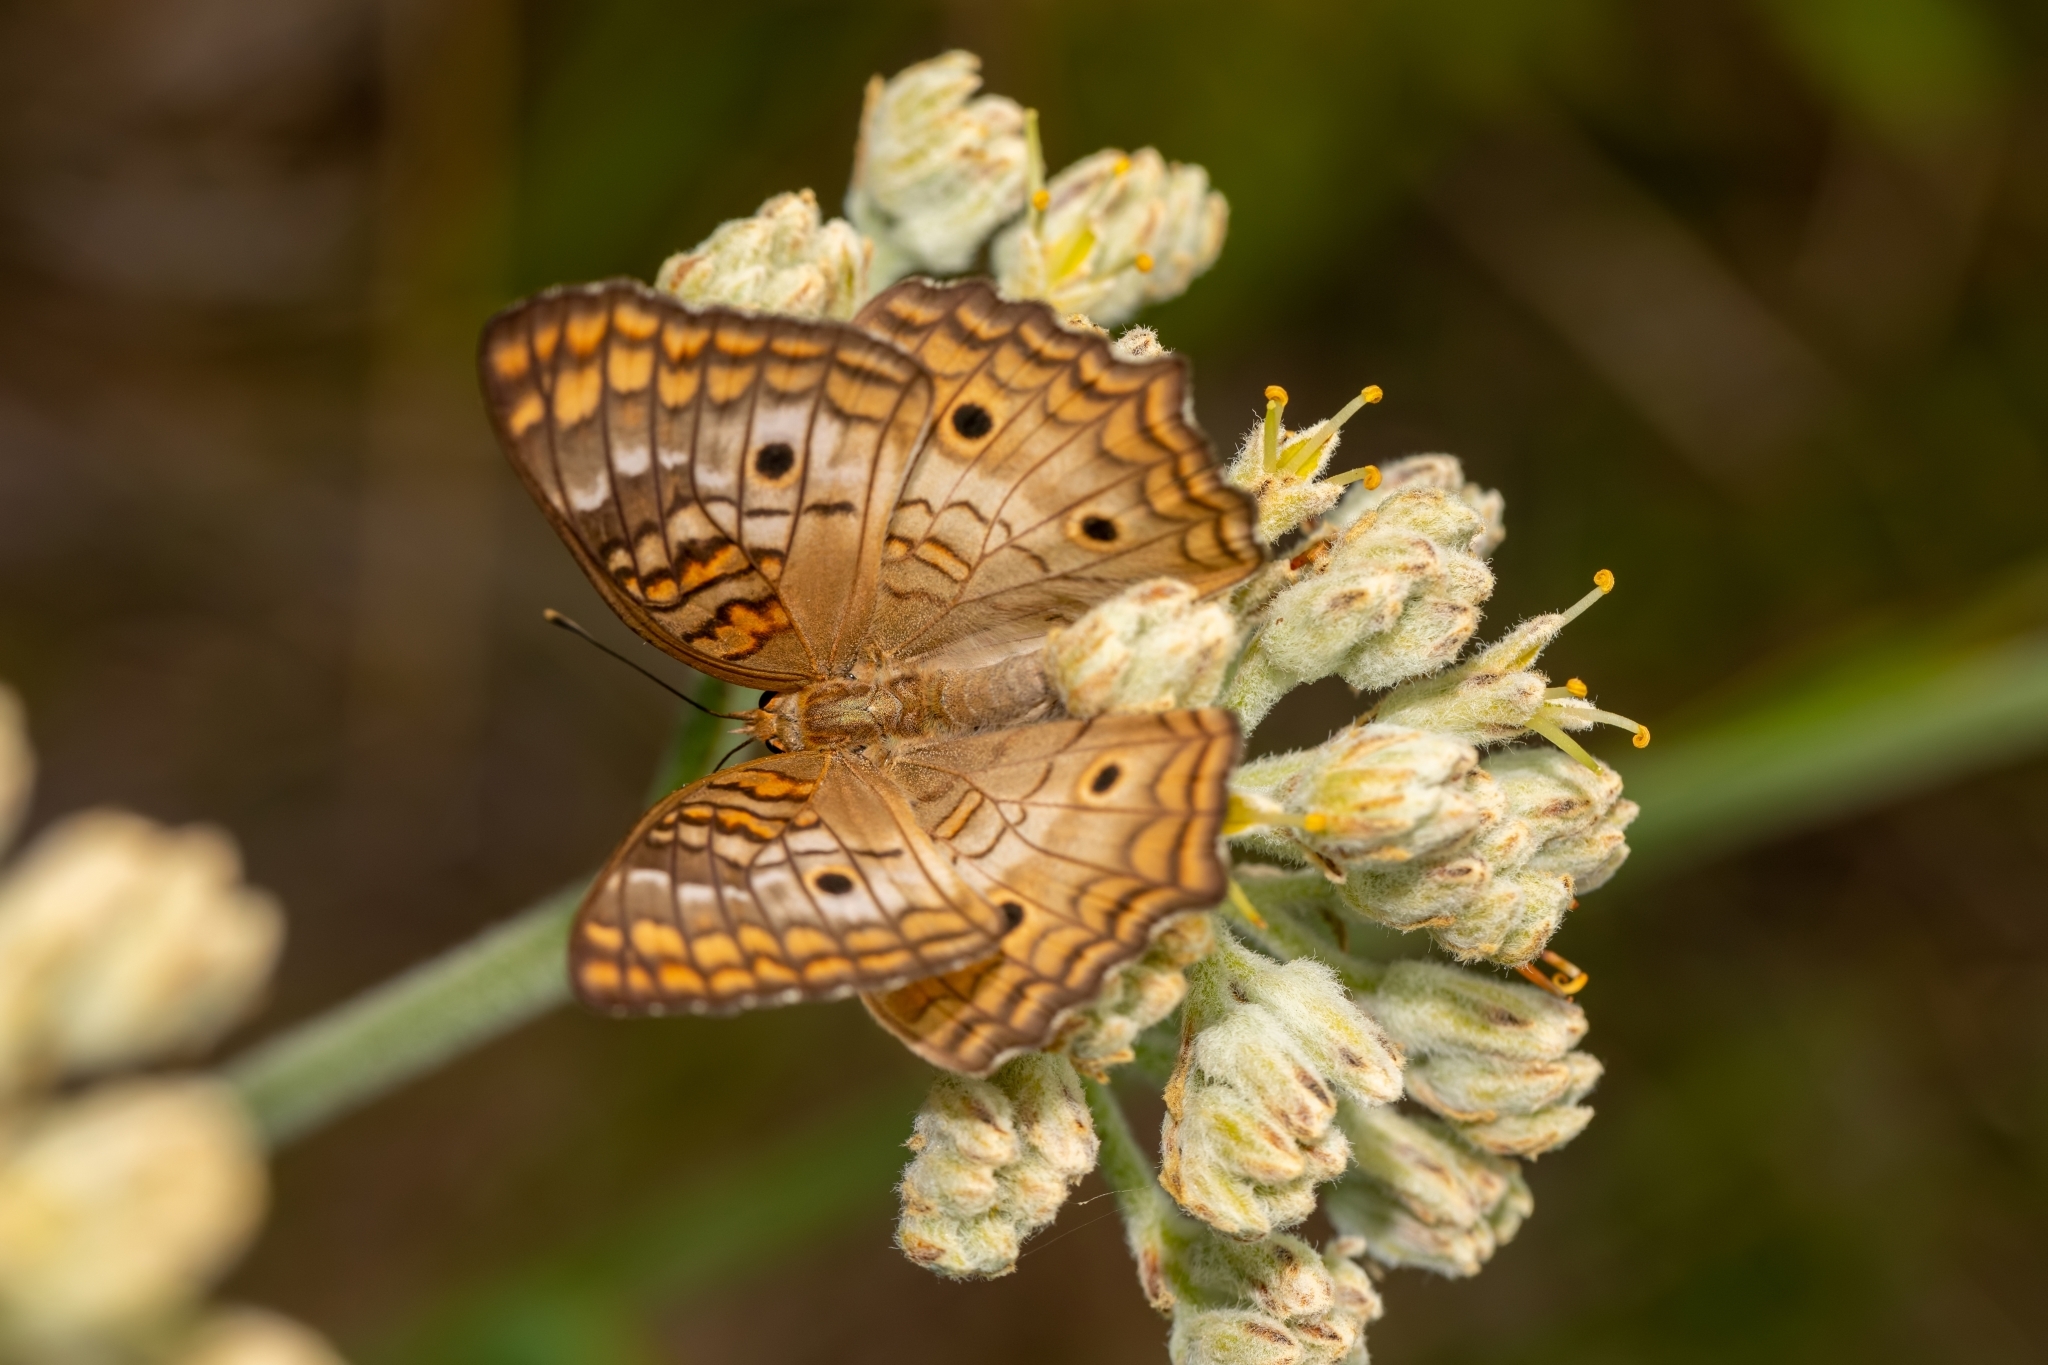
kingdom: Animalia
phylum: Arthropoda
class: Insecta
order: Lepidoptera
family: Nymphalidae
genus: Anartia
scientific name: Anartia jatrophae
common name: White peacock
